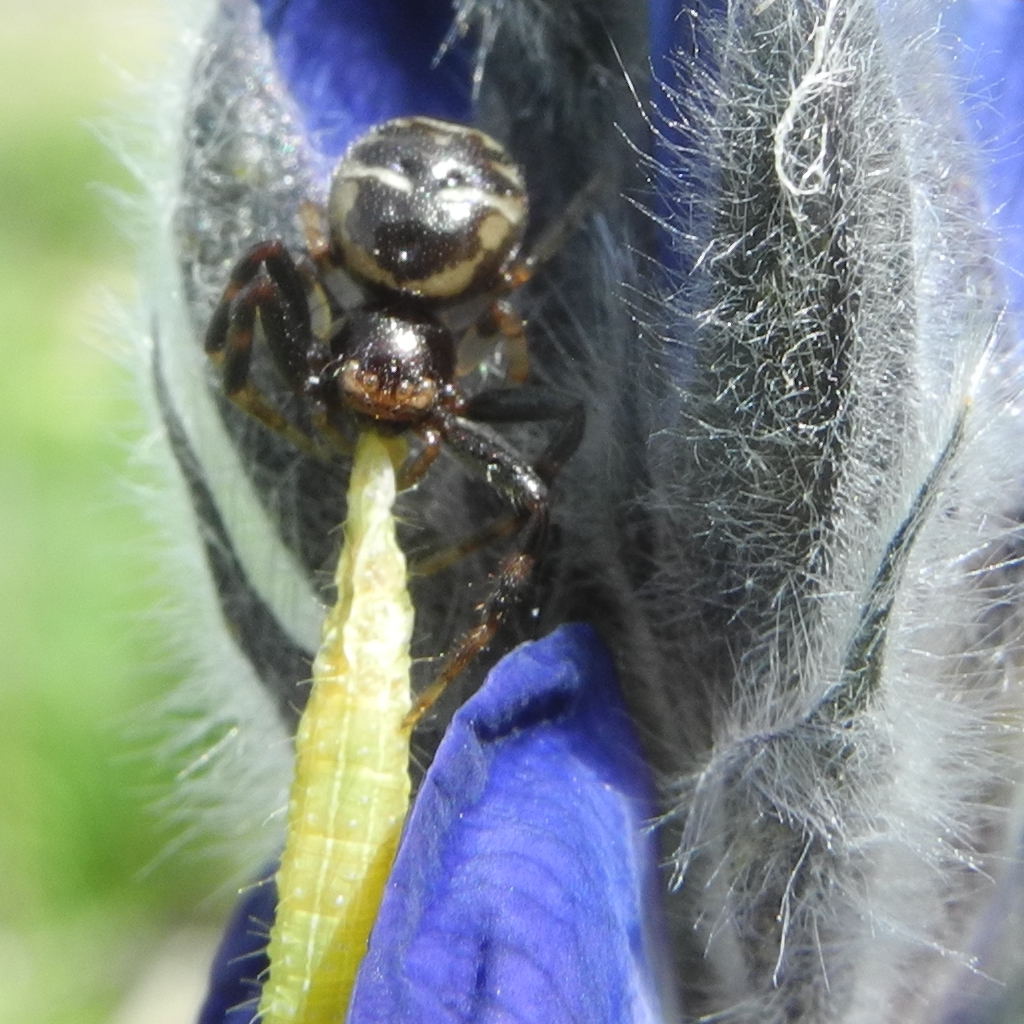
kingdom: Animalia
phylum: Arthropoda
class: Arachnida
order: Araneae
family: Thomisidae
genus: Synema
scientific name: Synema globosum
